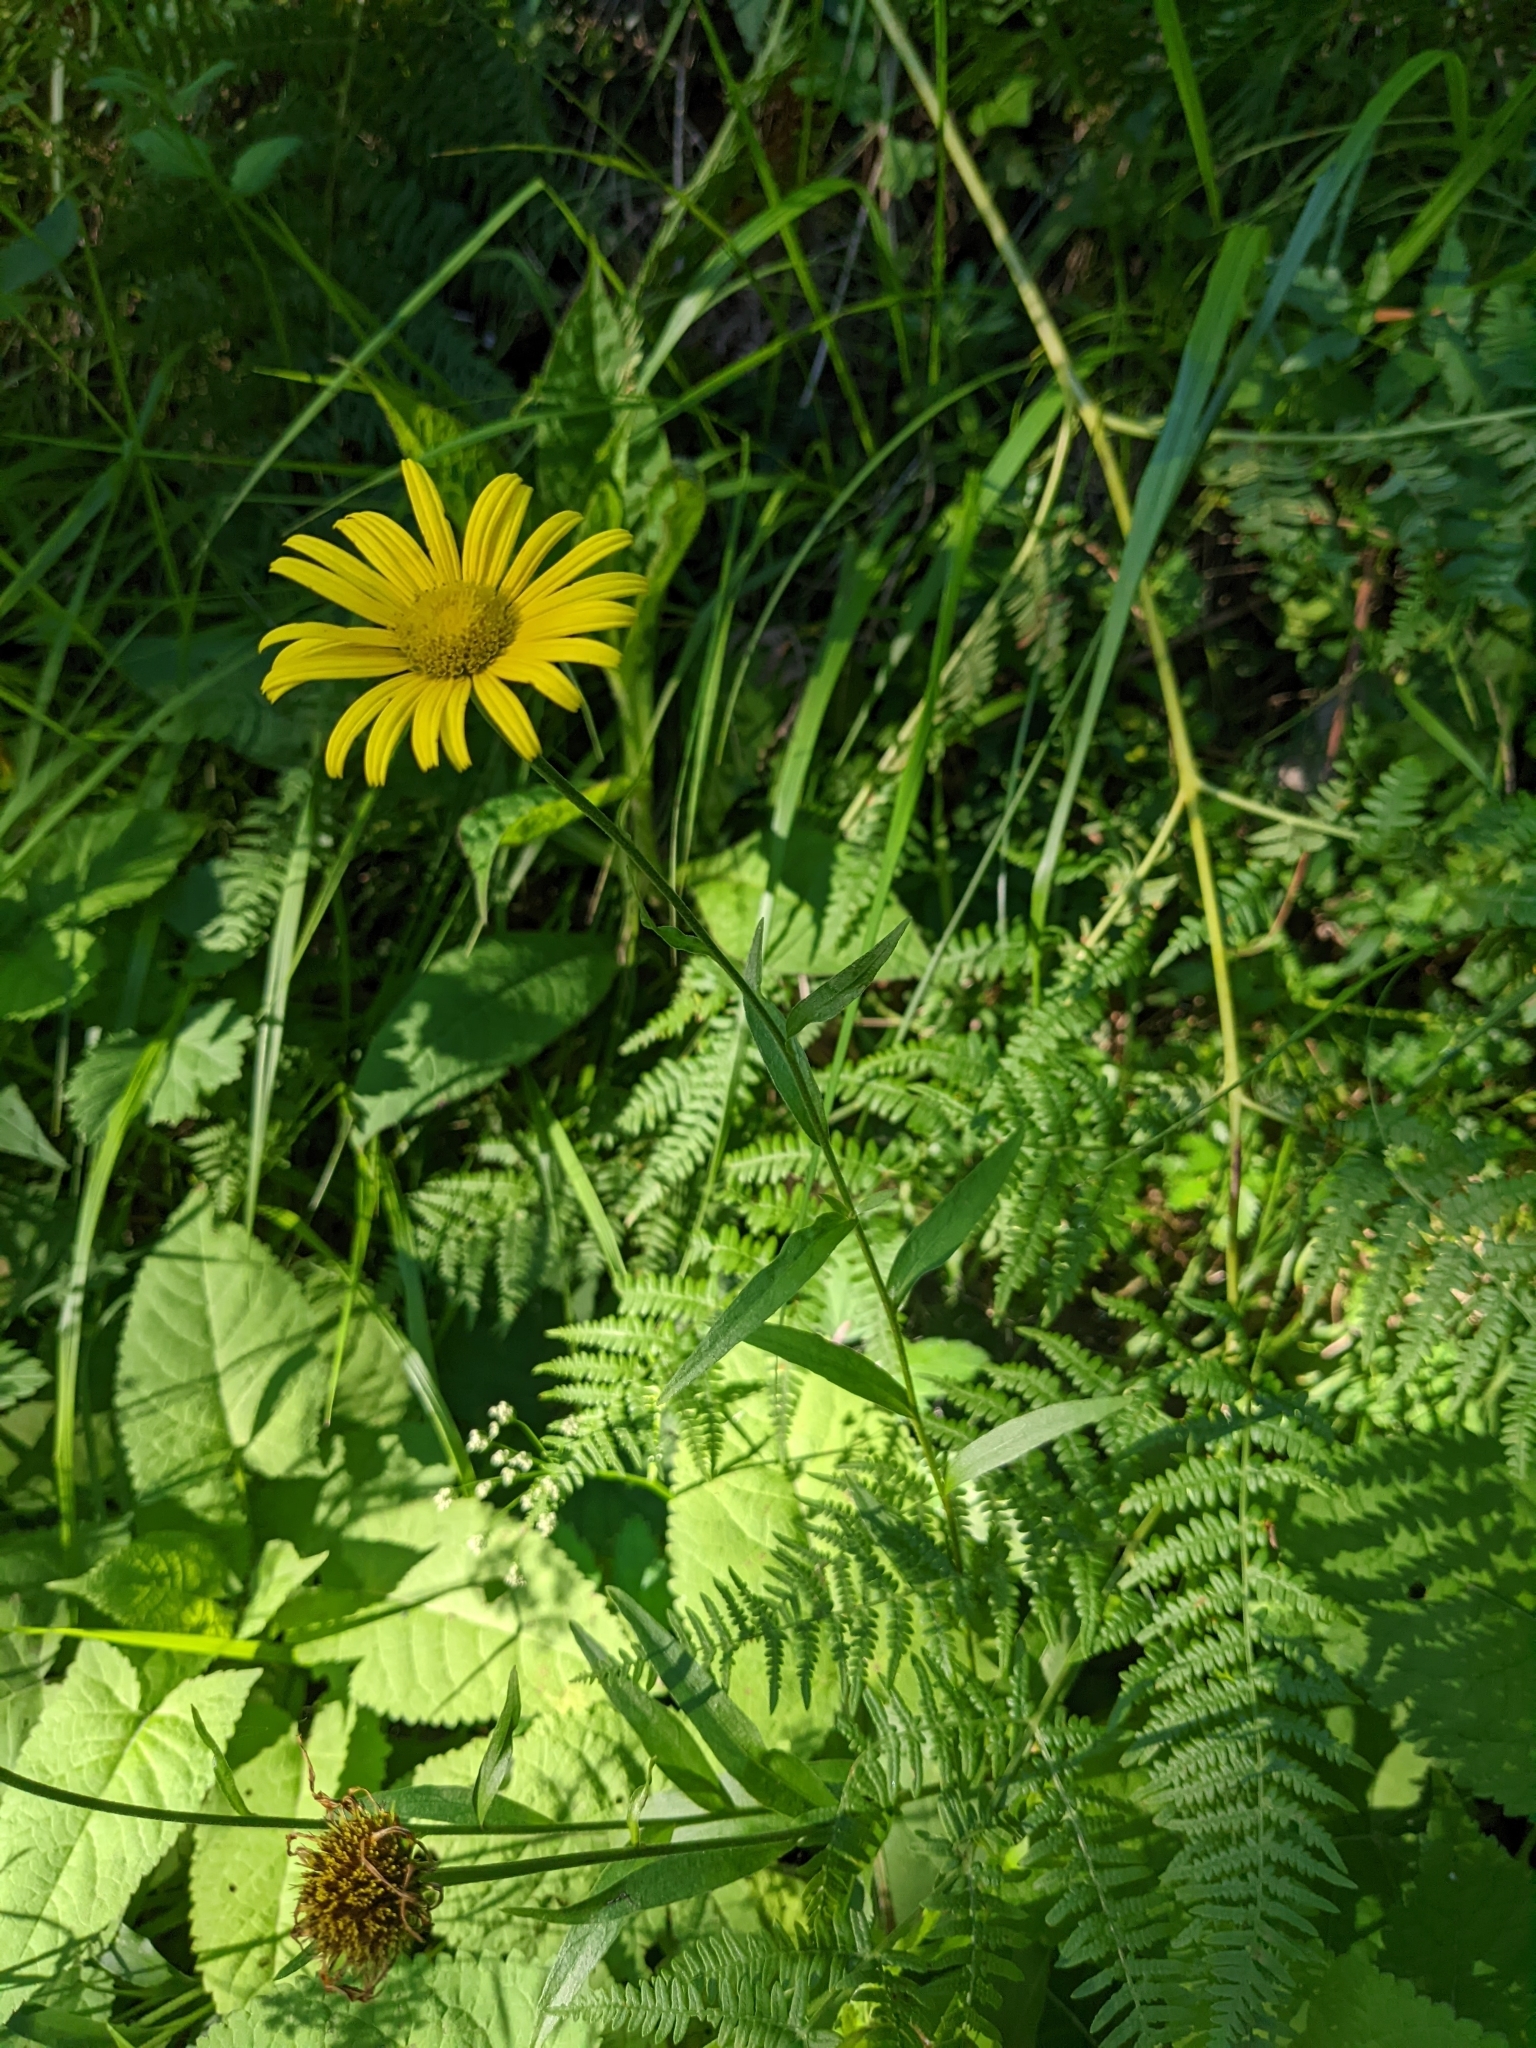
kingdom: Plantae
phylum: Tracheophyta
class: Magnoliopsida
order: Asterales
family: Asteraceae
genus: Buphthalmum
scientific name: Buphthalmum salicifolium
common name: Willow-leaved yellow-oxeye
